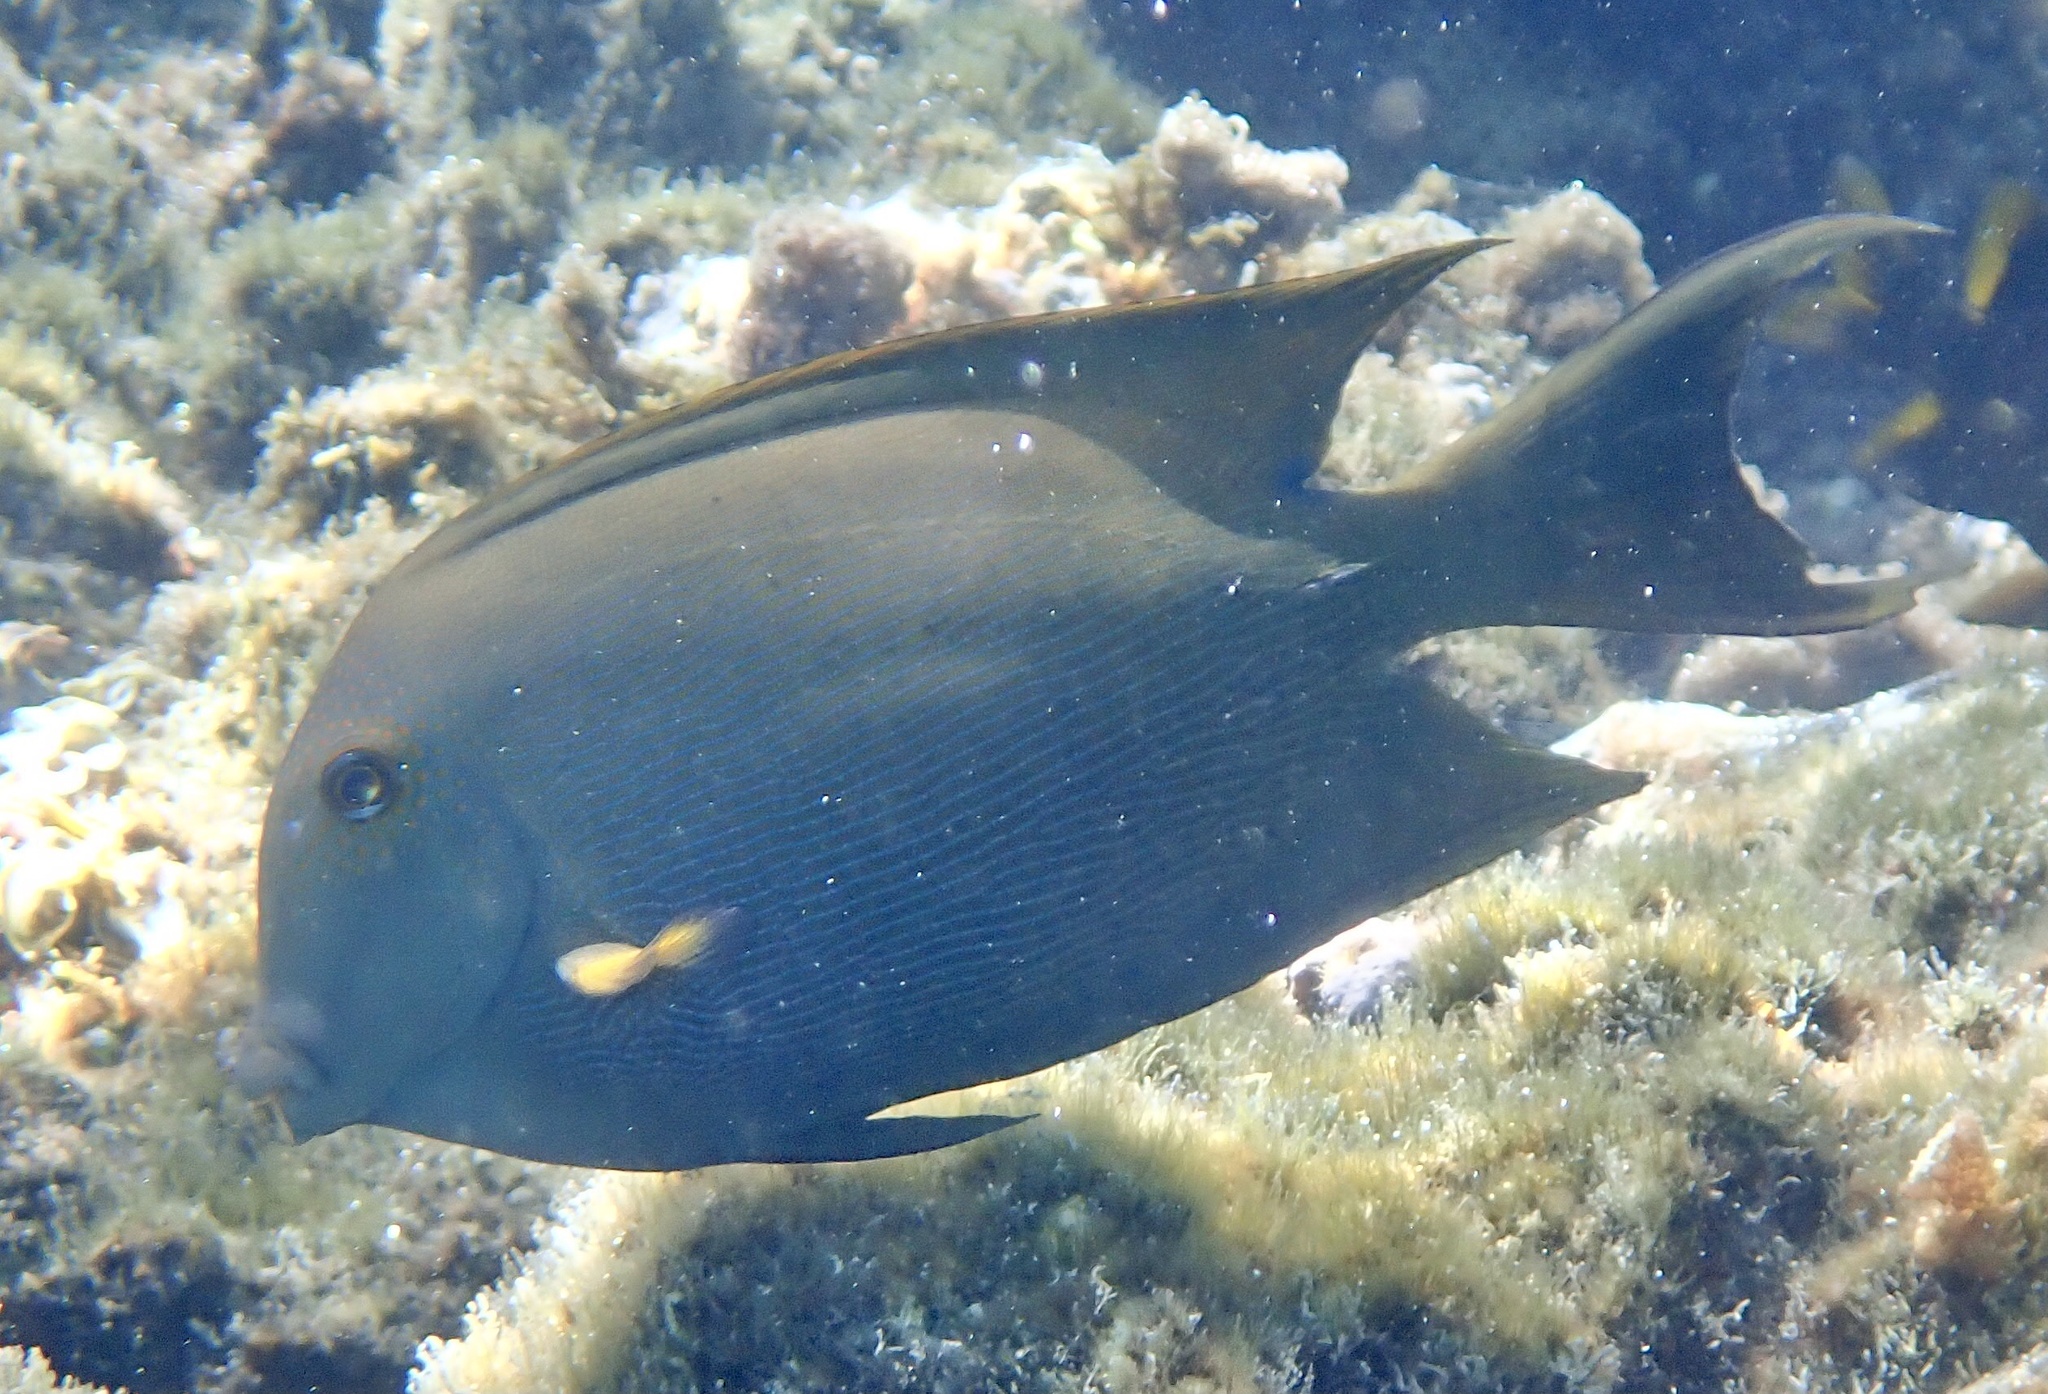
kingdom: Animalia
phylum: Chordata
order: Perciformes
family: Acanthuridae
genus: Ctenochaetus
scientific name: Ctenochaetus striatus
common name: Bristle-toothed surgeonfish
